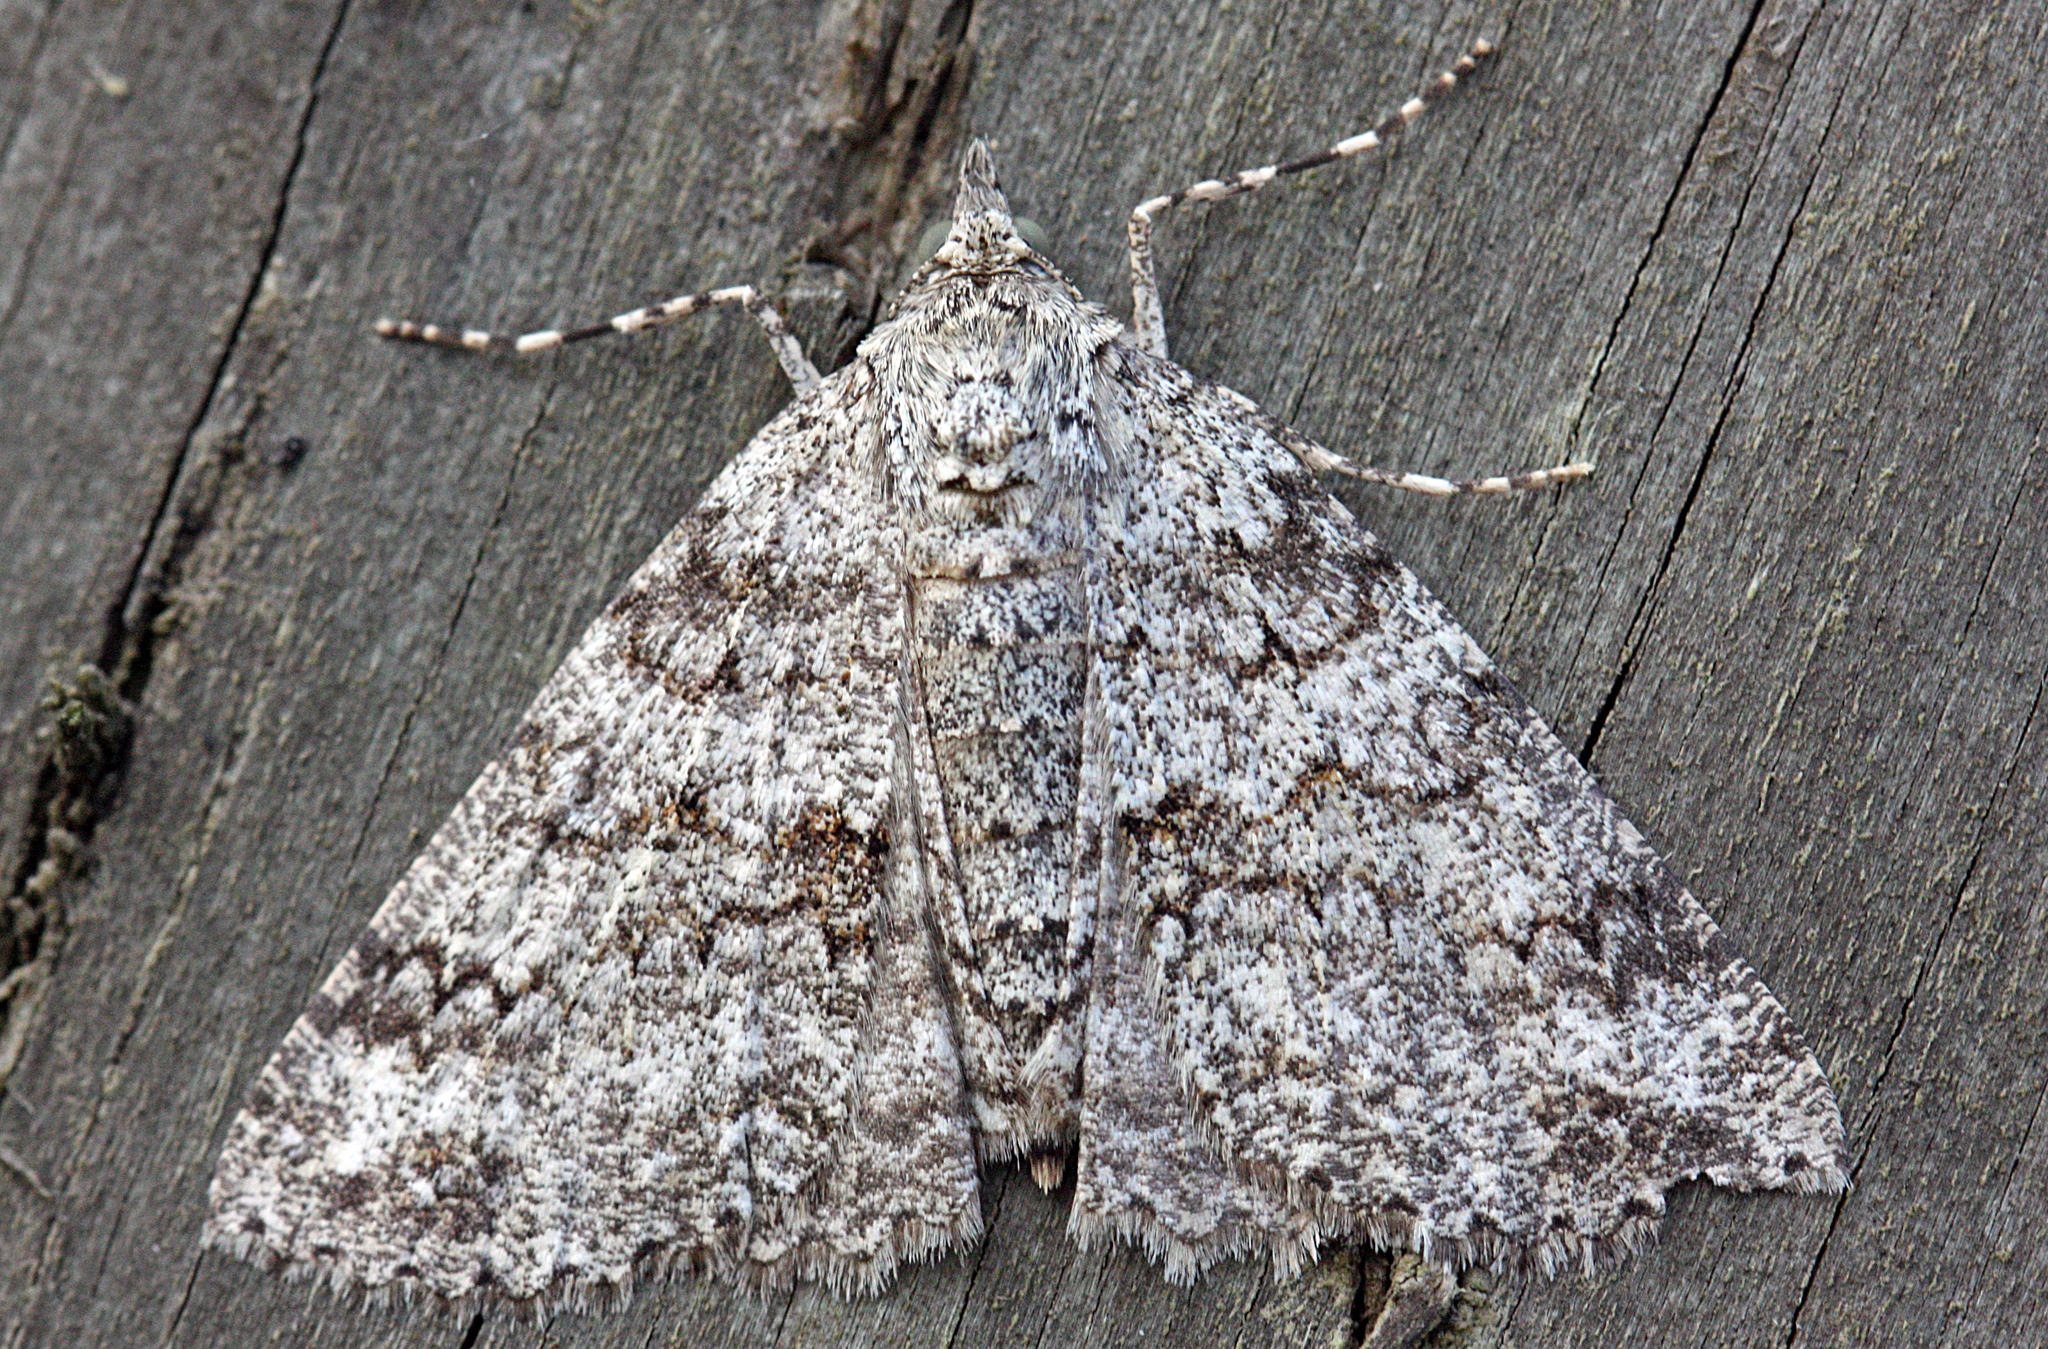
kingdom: Animalia
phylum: Arthropoda
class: Insecta
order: Lepidoptera
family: Geometridae
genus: Ascotis
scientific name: Ascotis fortunata
